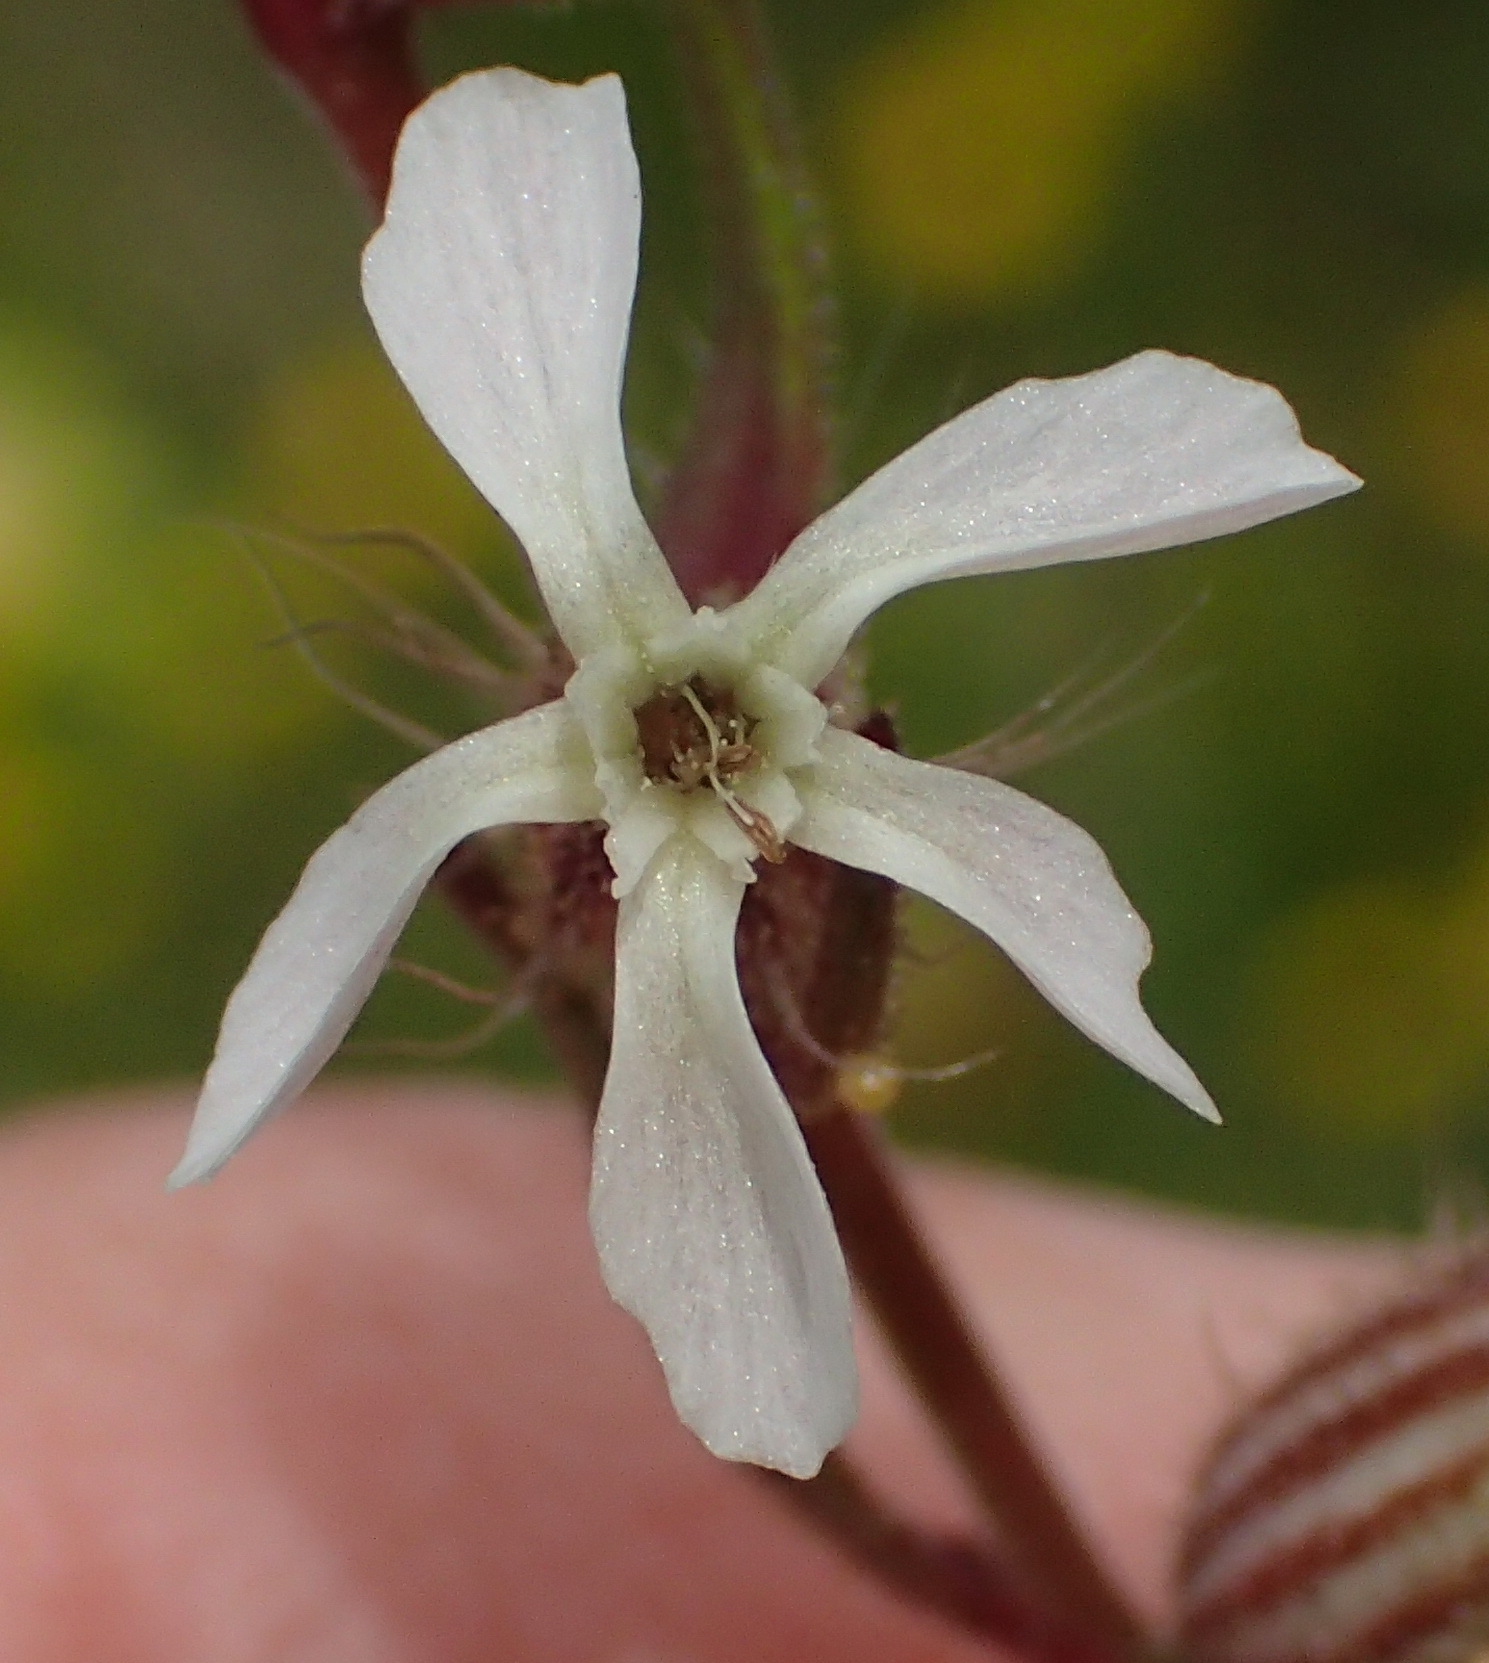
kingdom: Plantae
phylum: Tracheophyta
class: Magnoliopsida
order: Caryophyllales
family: Caryophyllaceae
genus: Silene
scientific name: Silene gallica
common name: Small-flowered catchfly
